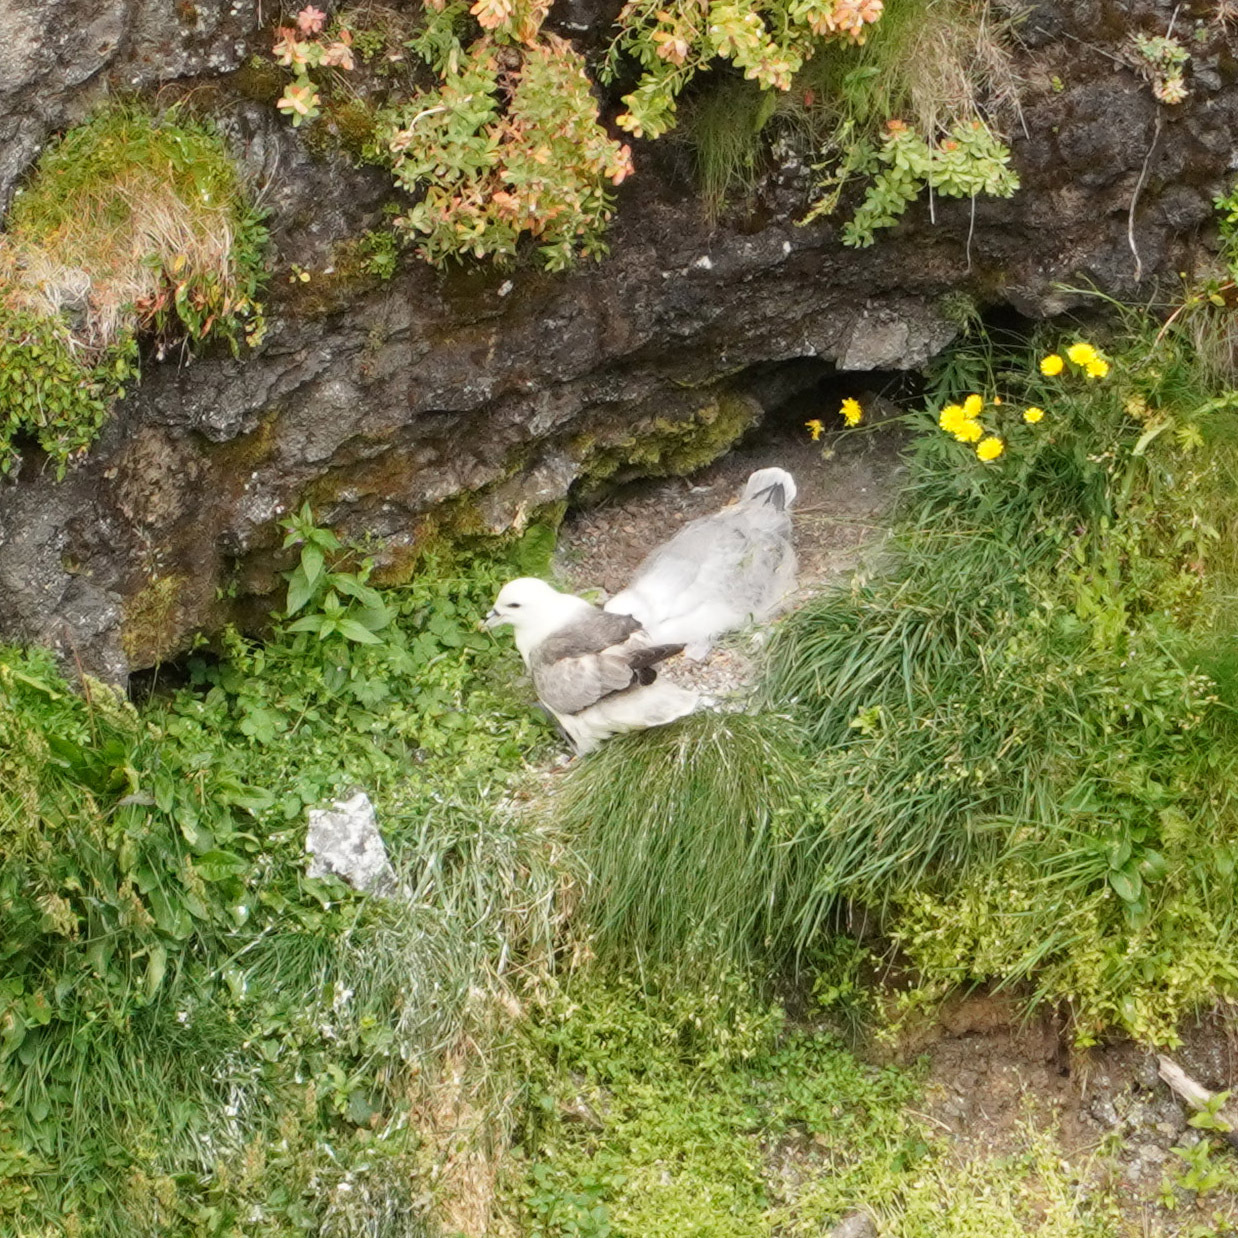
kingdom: Animalia
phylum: Chordata
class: Aves
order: Procellariiformes
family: Procellariidae
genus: Fulmarus
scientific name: Fulmarus glacialis
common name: Northern fulmar
